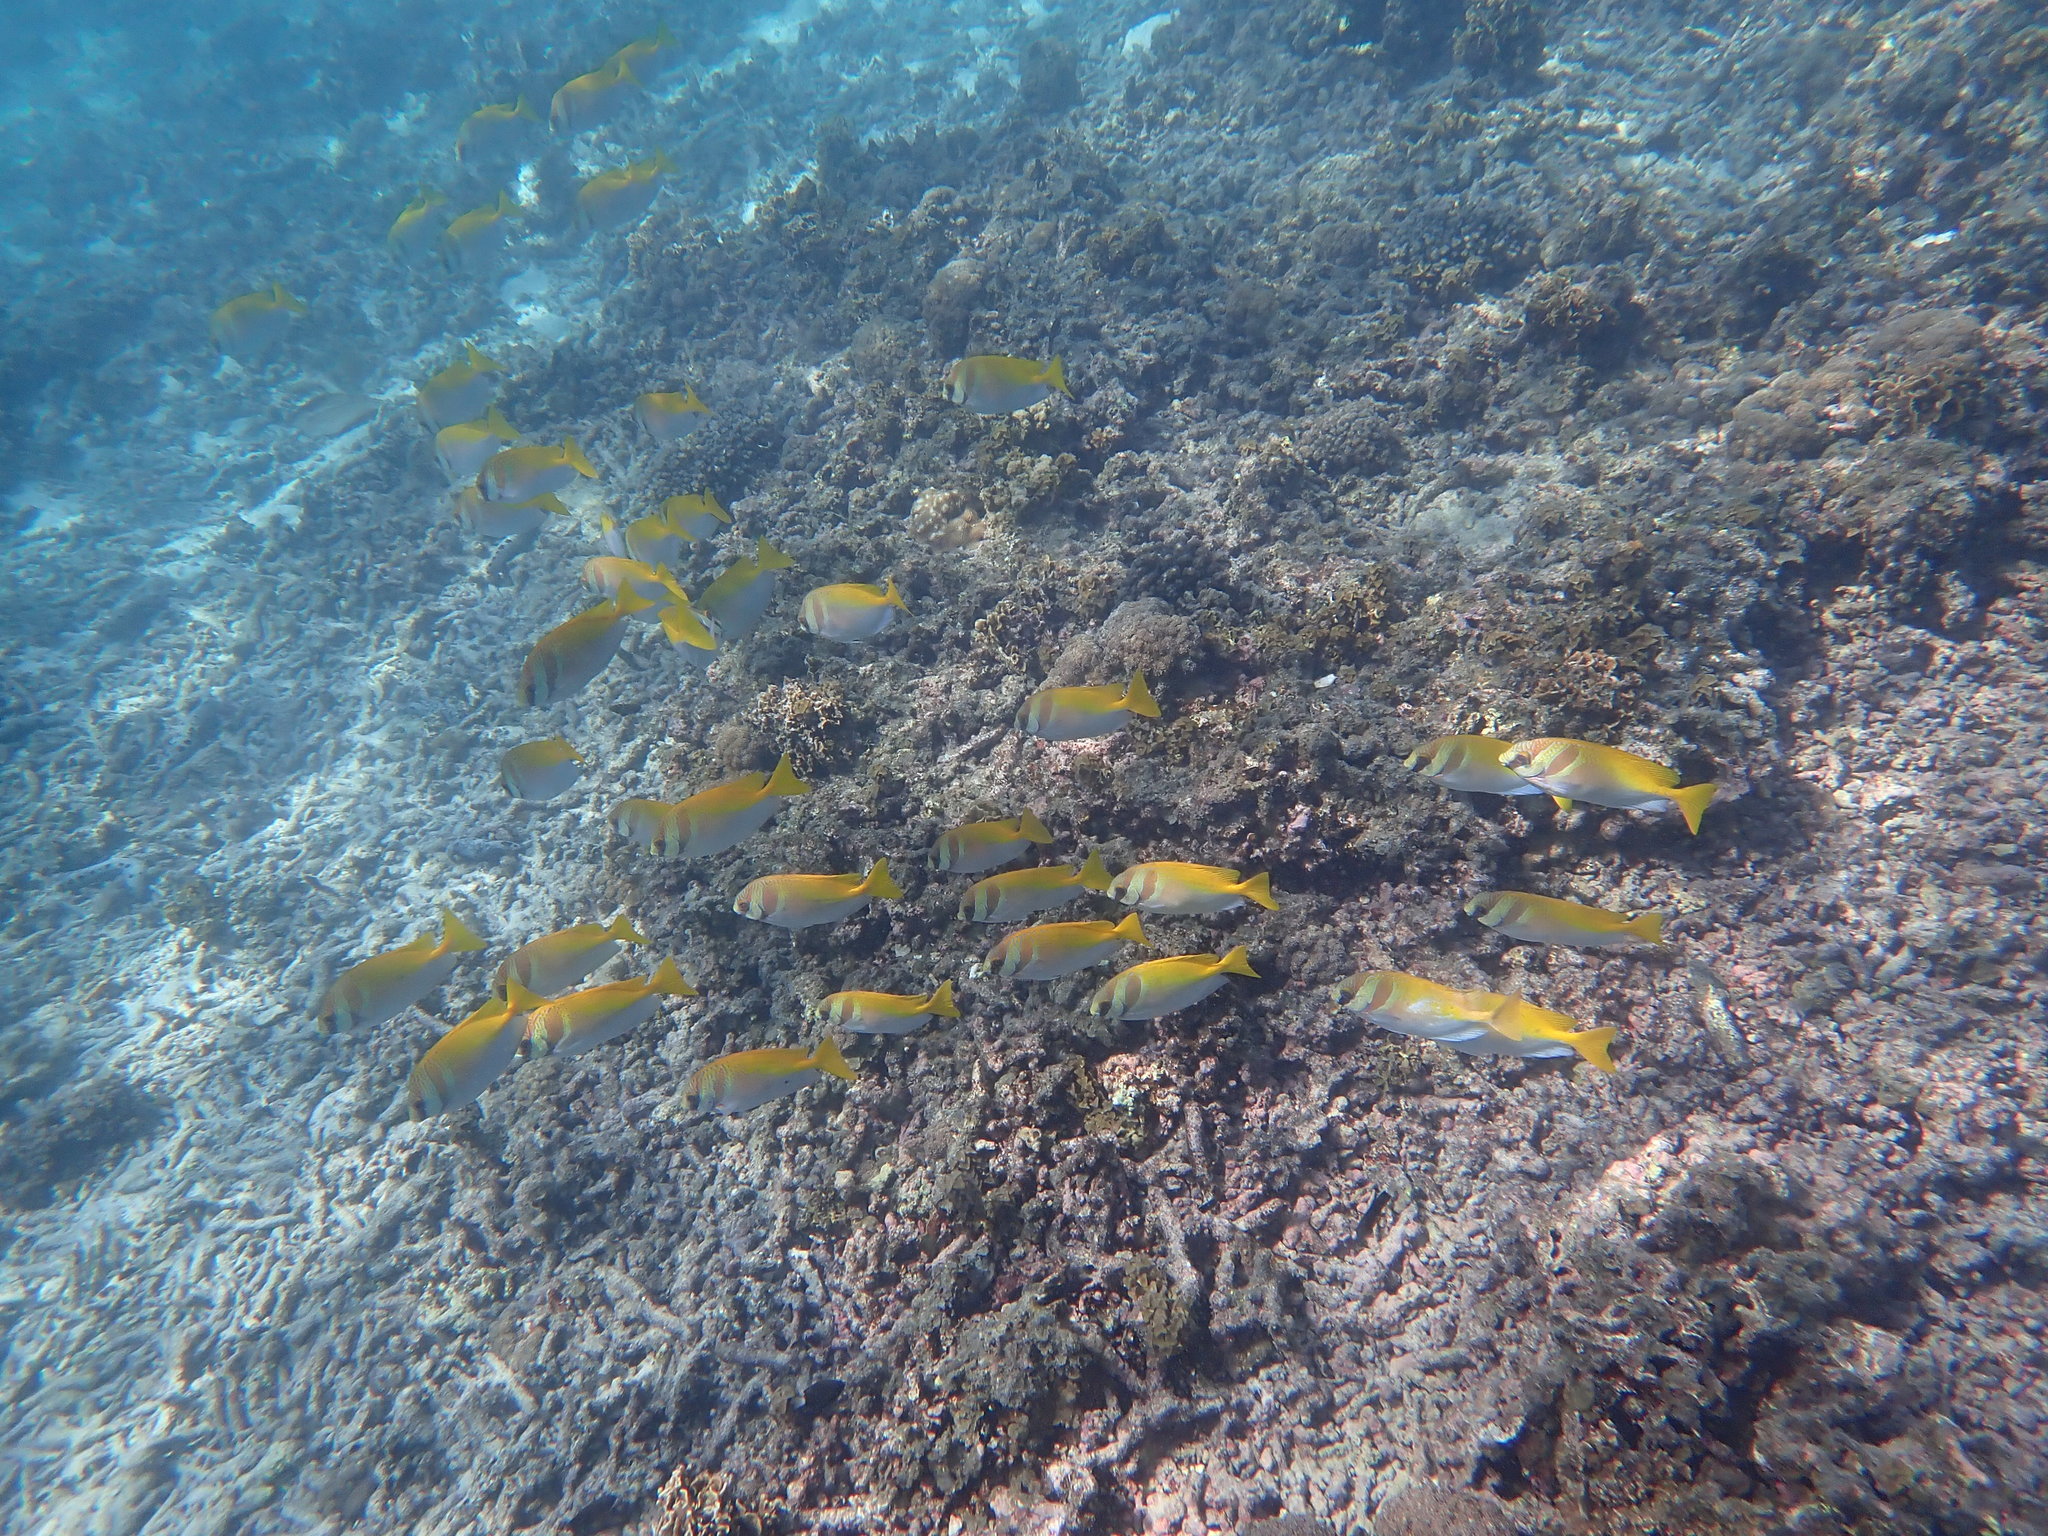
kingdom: Animalia
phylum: Chordata
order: Perciformes
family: Siganidae
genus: Siganus
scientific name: Siganus virgatus
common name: Barhead spinefoot
